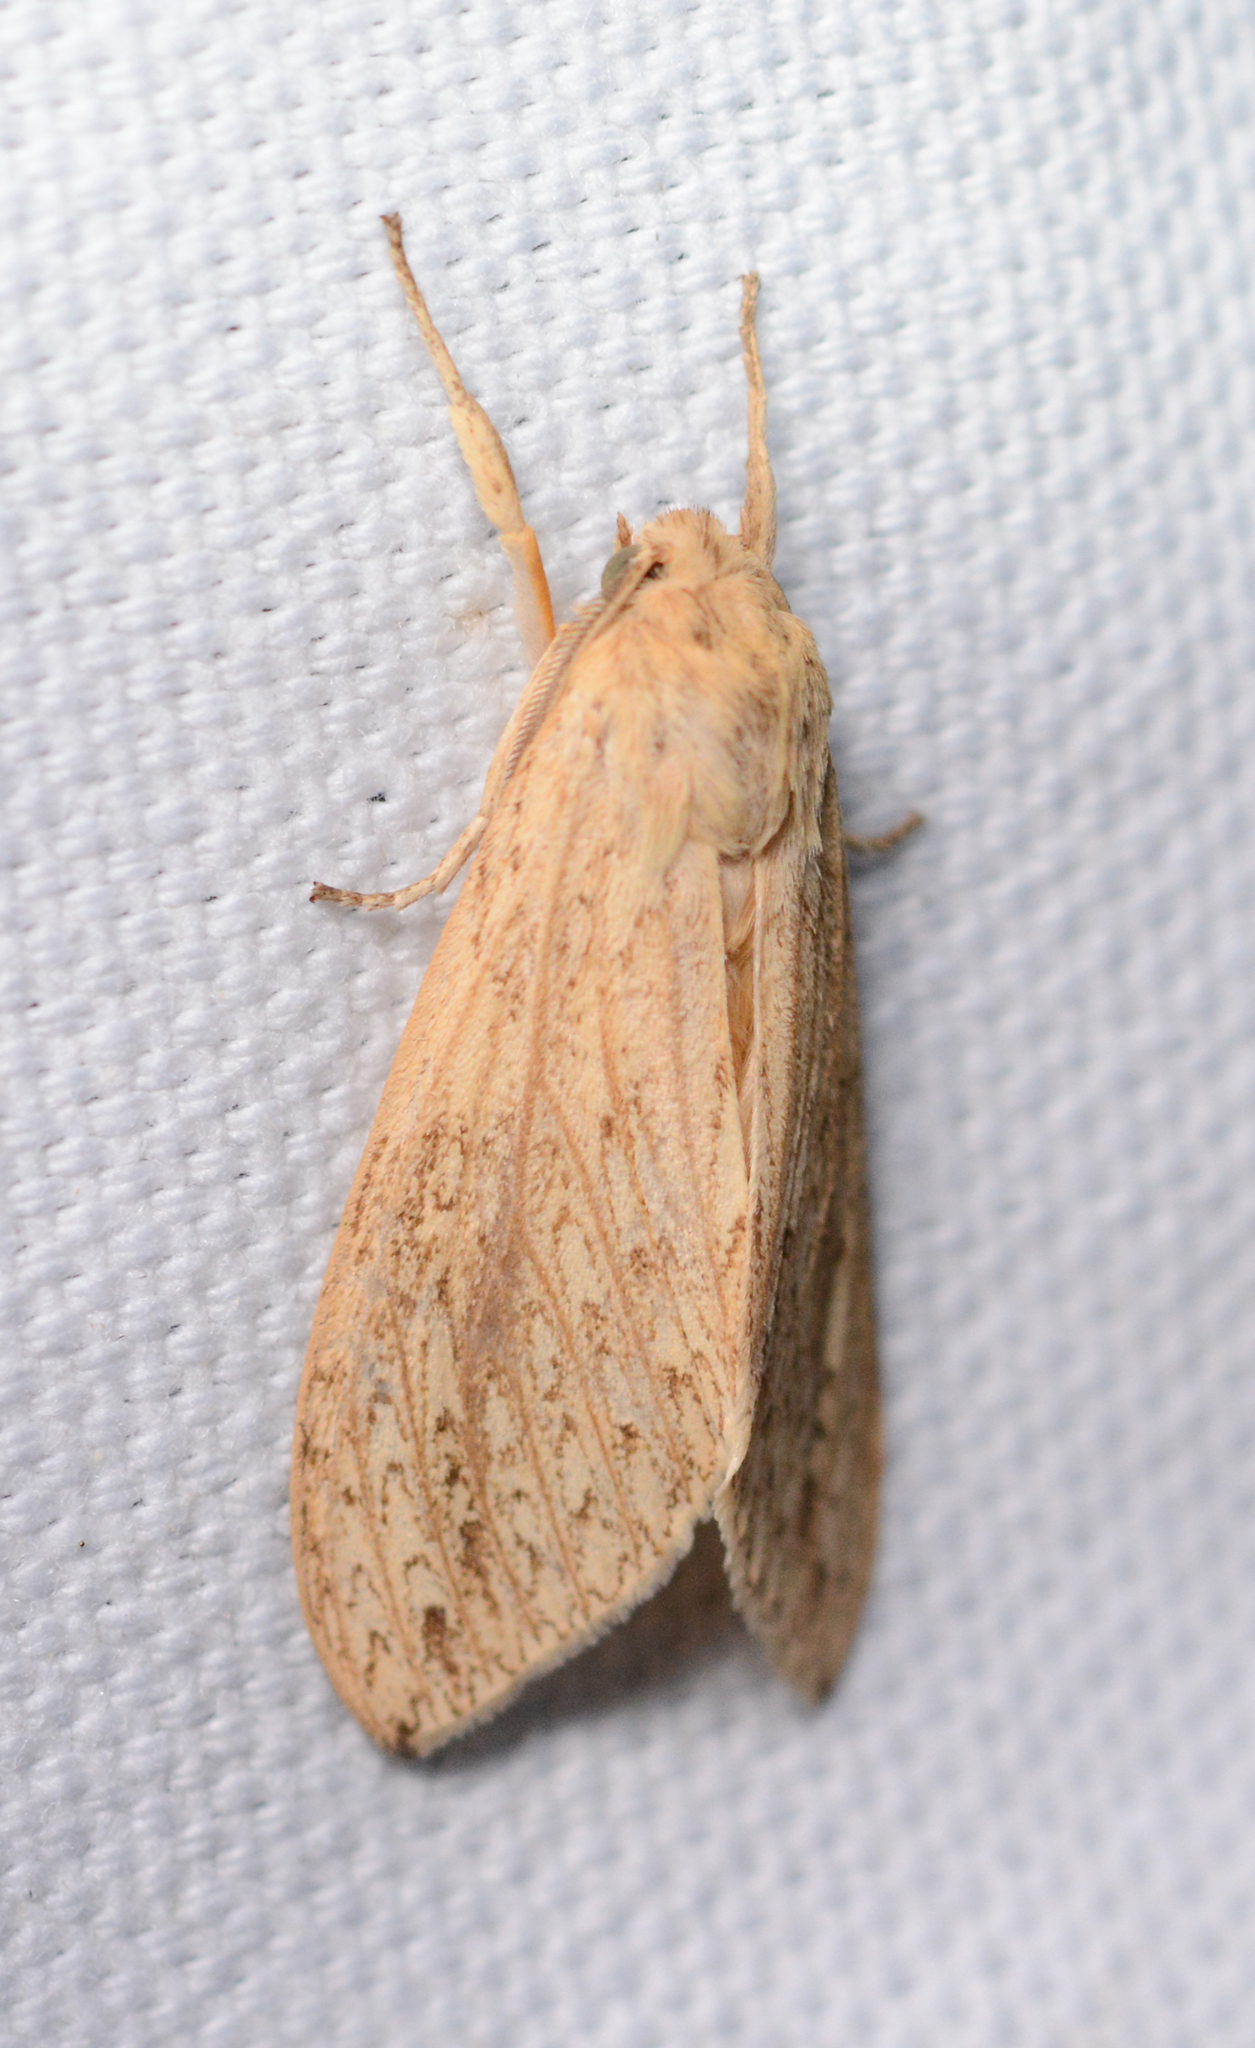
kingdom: Animalia
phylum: Arthropoda
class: Insecta
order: Lepidoptera
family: Erebidae
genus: Leucanopsis
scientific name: Leucanopsis longa
